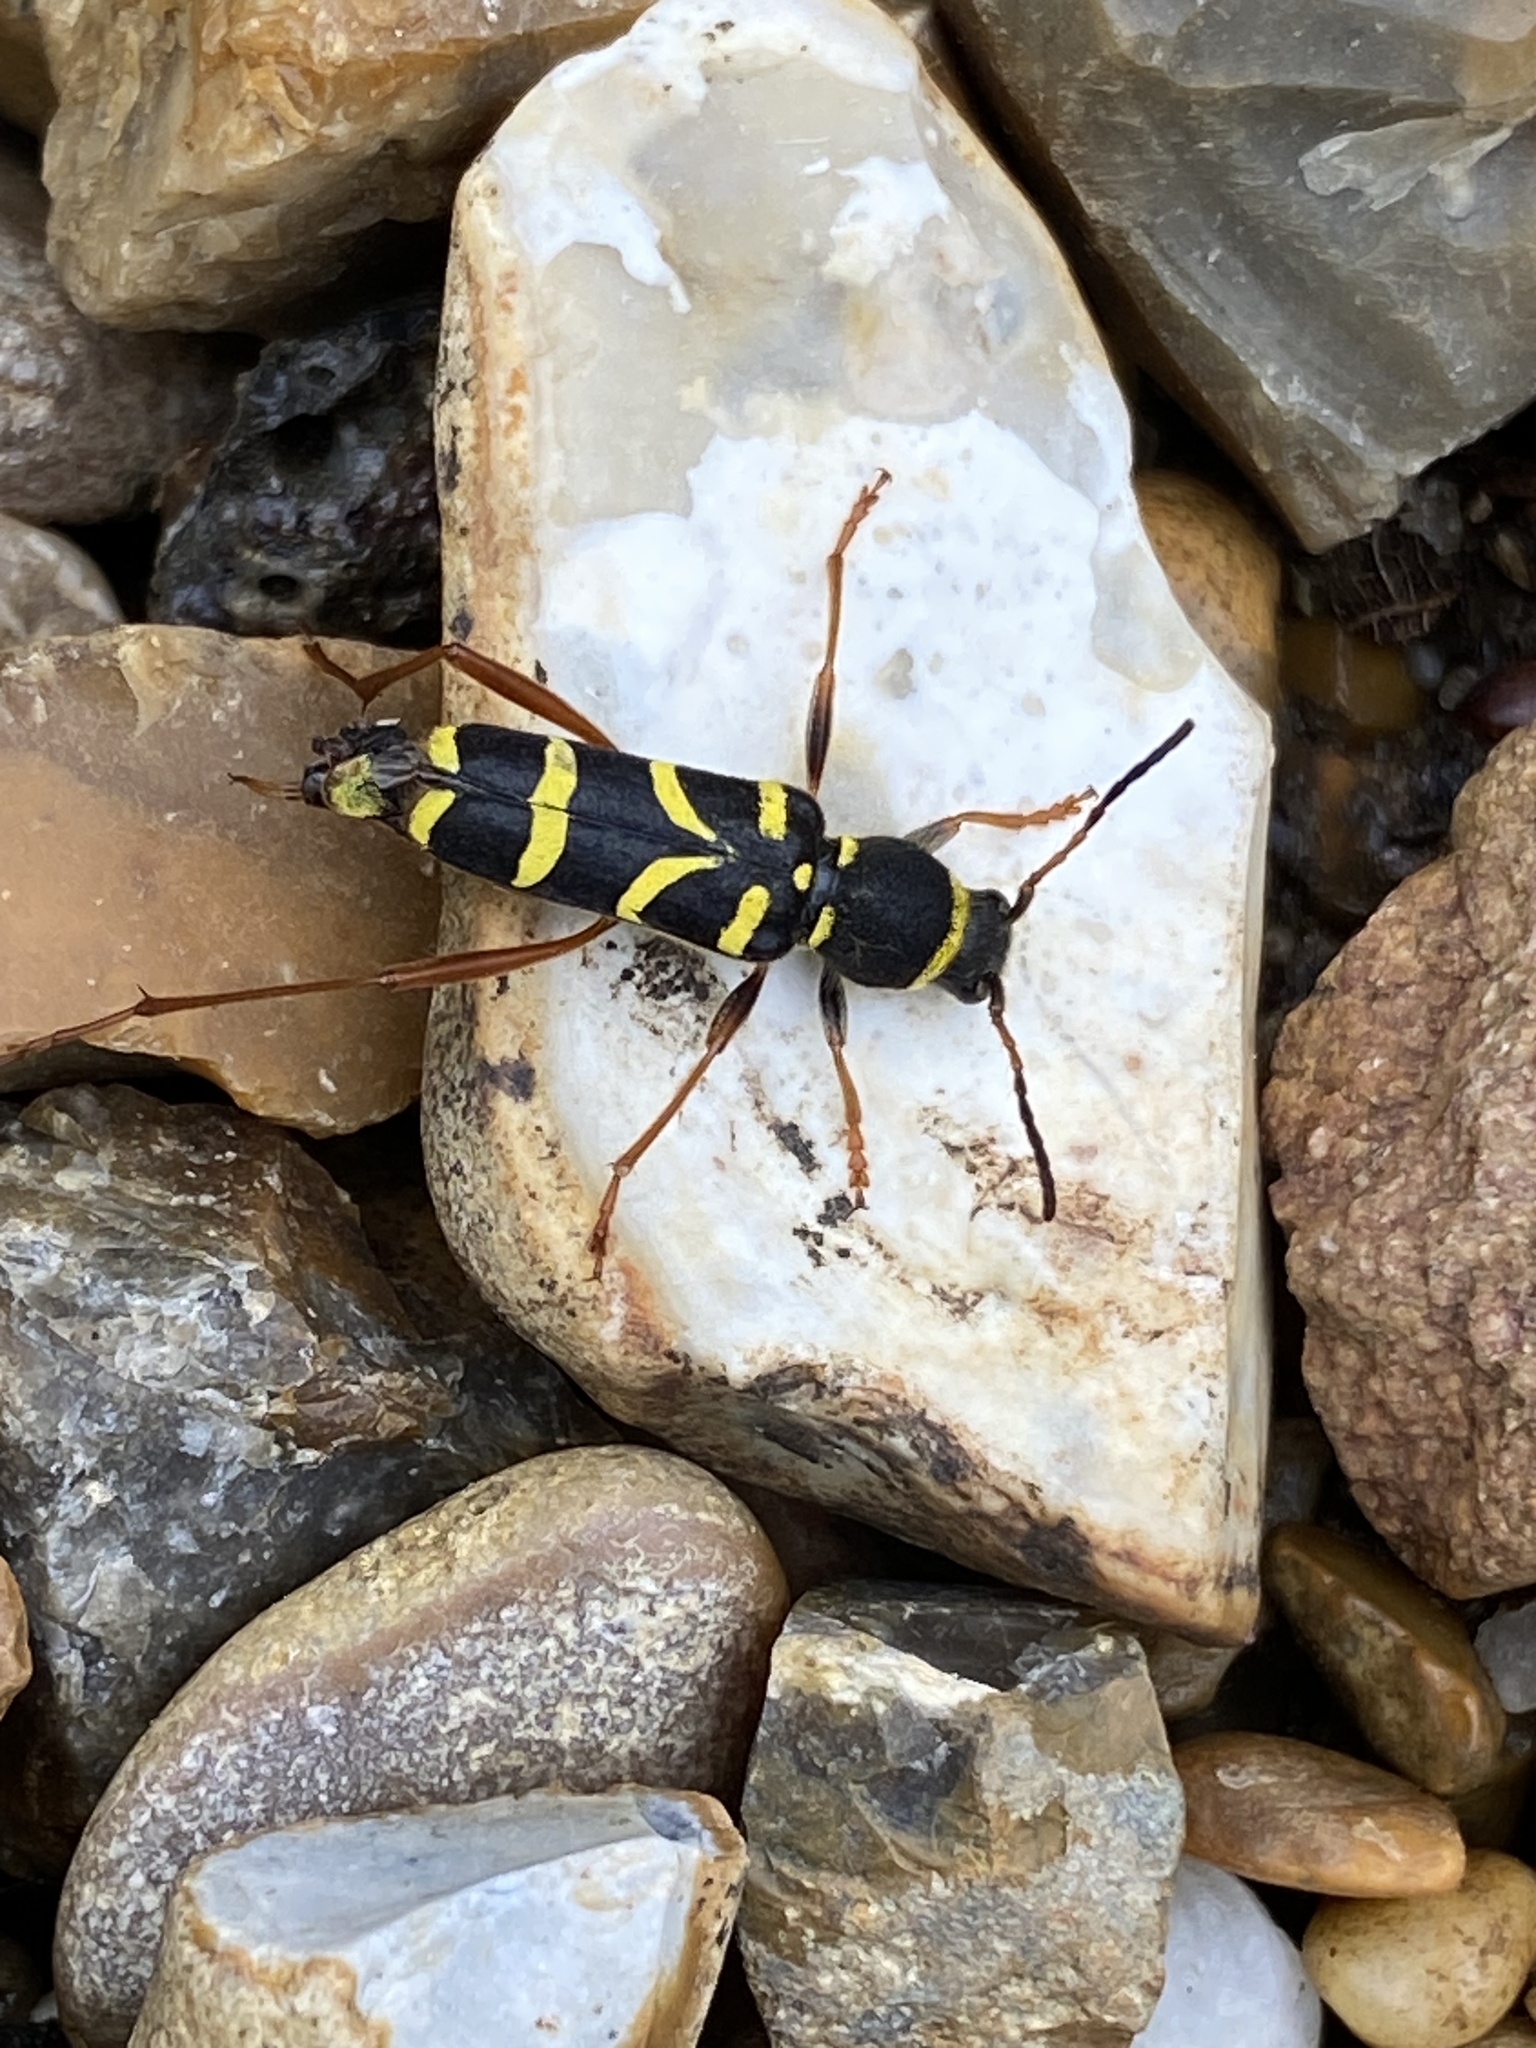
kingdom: Animalia
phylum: Arthropoda
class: Insecta
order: Coleoptera
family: Cerambycidae
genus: Clytus
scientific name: Clytus arietis
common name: Wasp beetle
